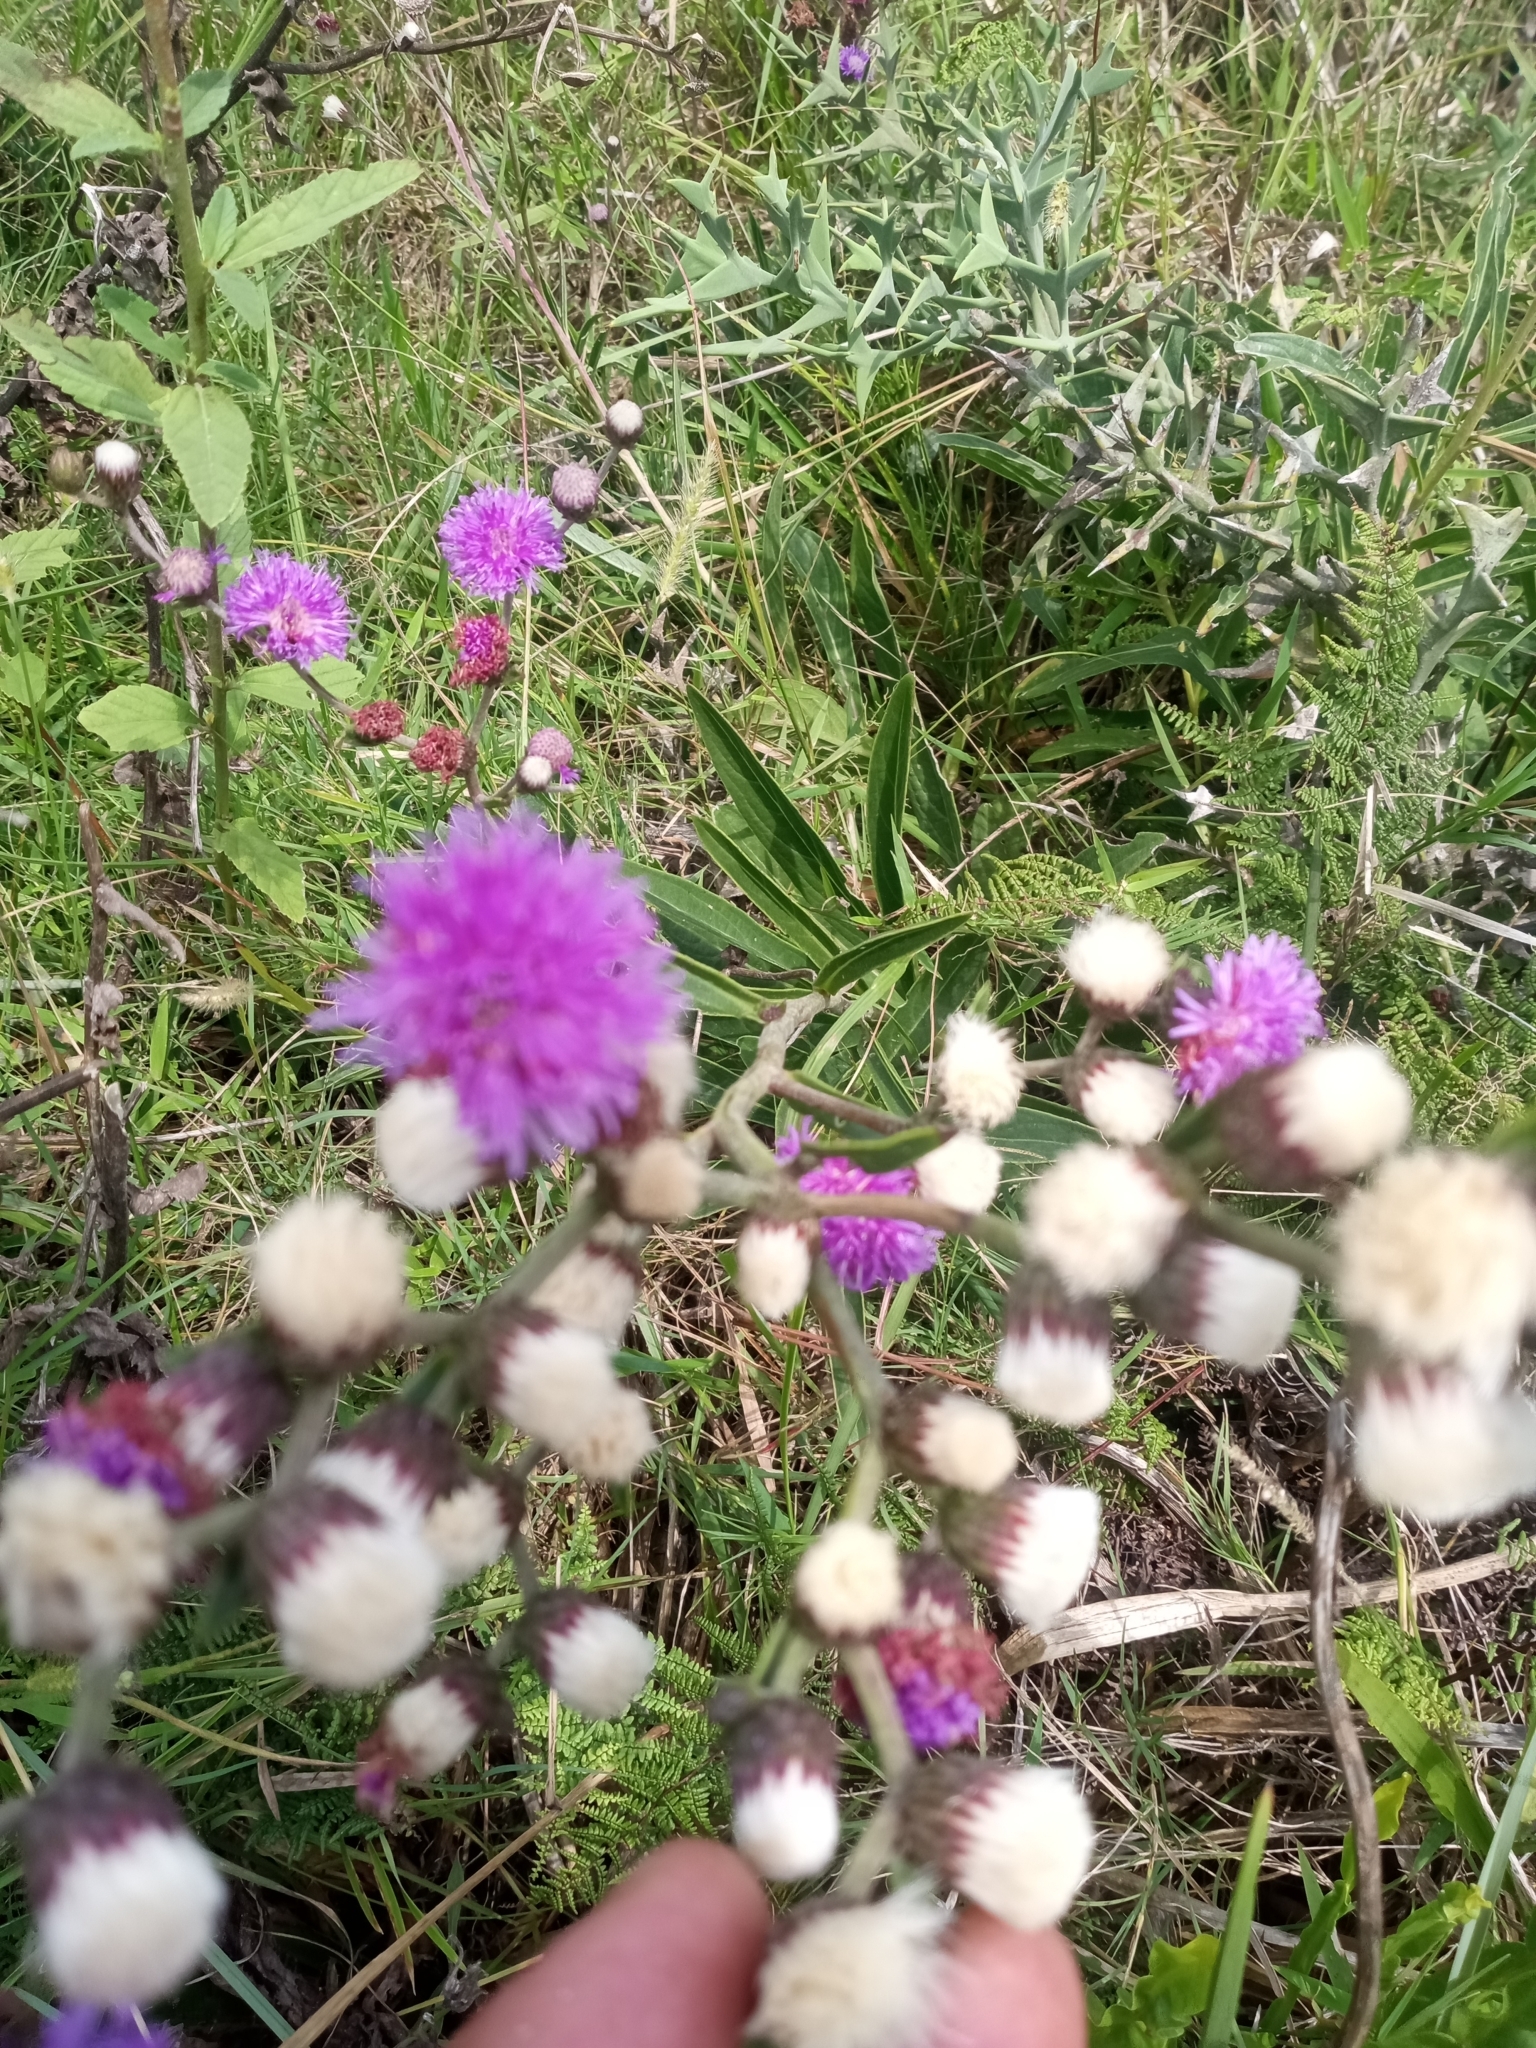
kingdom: Plantae
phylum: Tracheophyta
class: Magnoliopsida
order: Asterales
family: Asteraceae
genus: Chrysolaena
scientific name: Chrysolaena flexuosa
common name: Zig-zag vernonia
